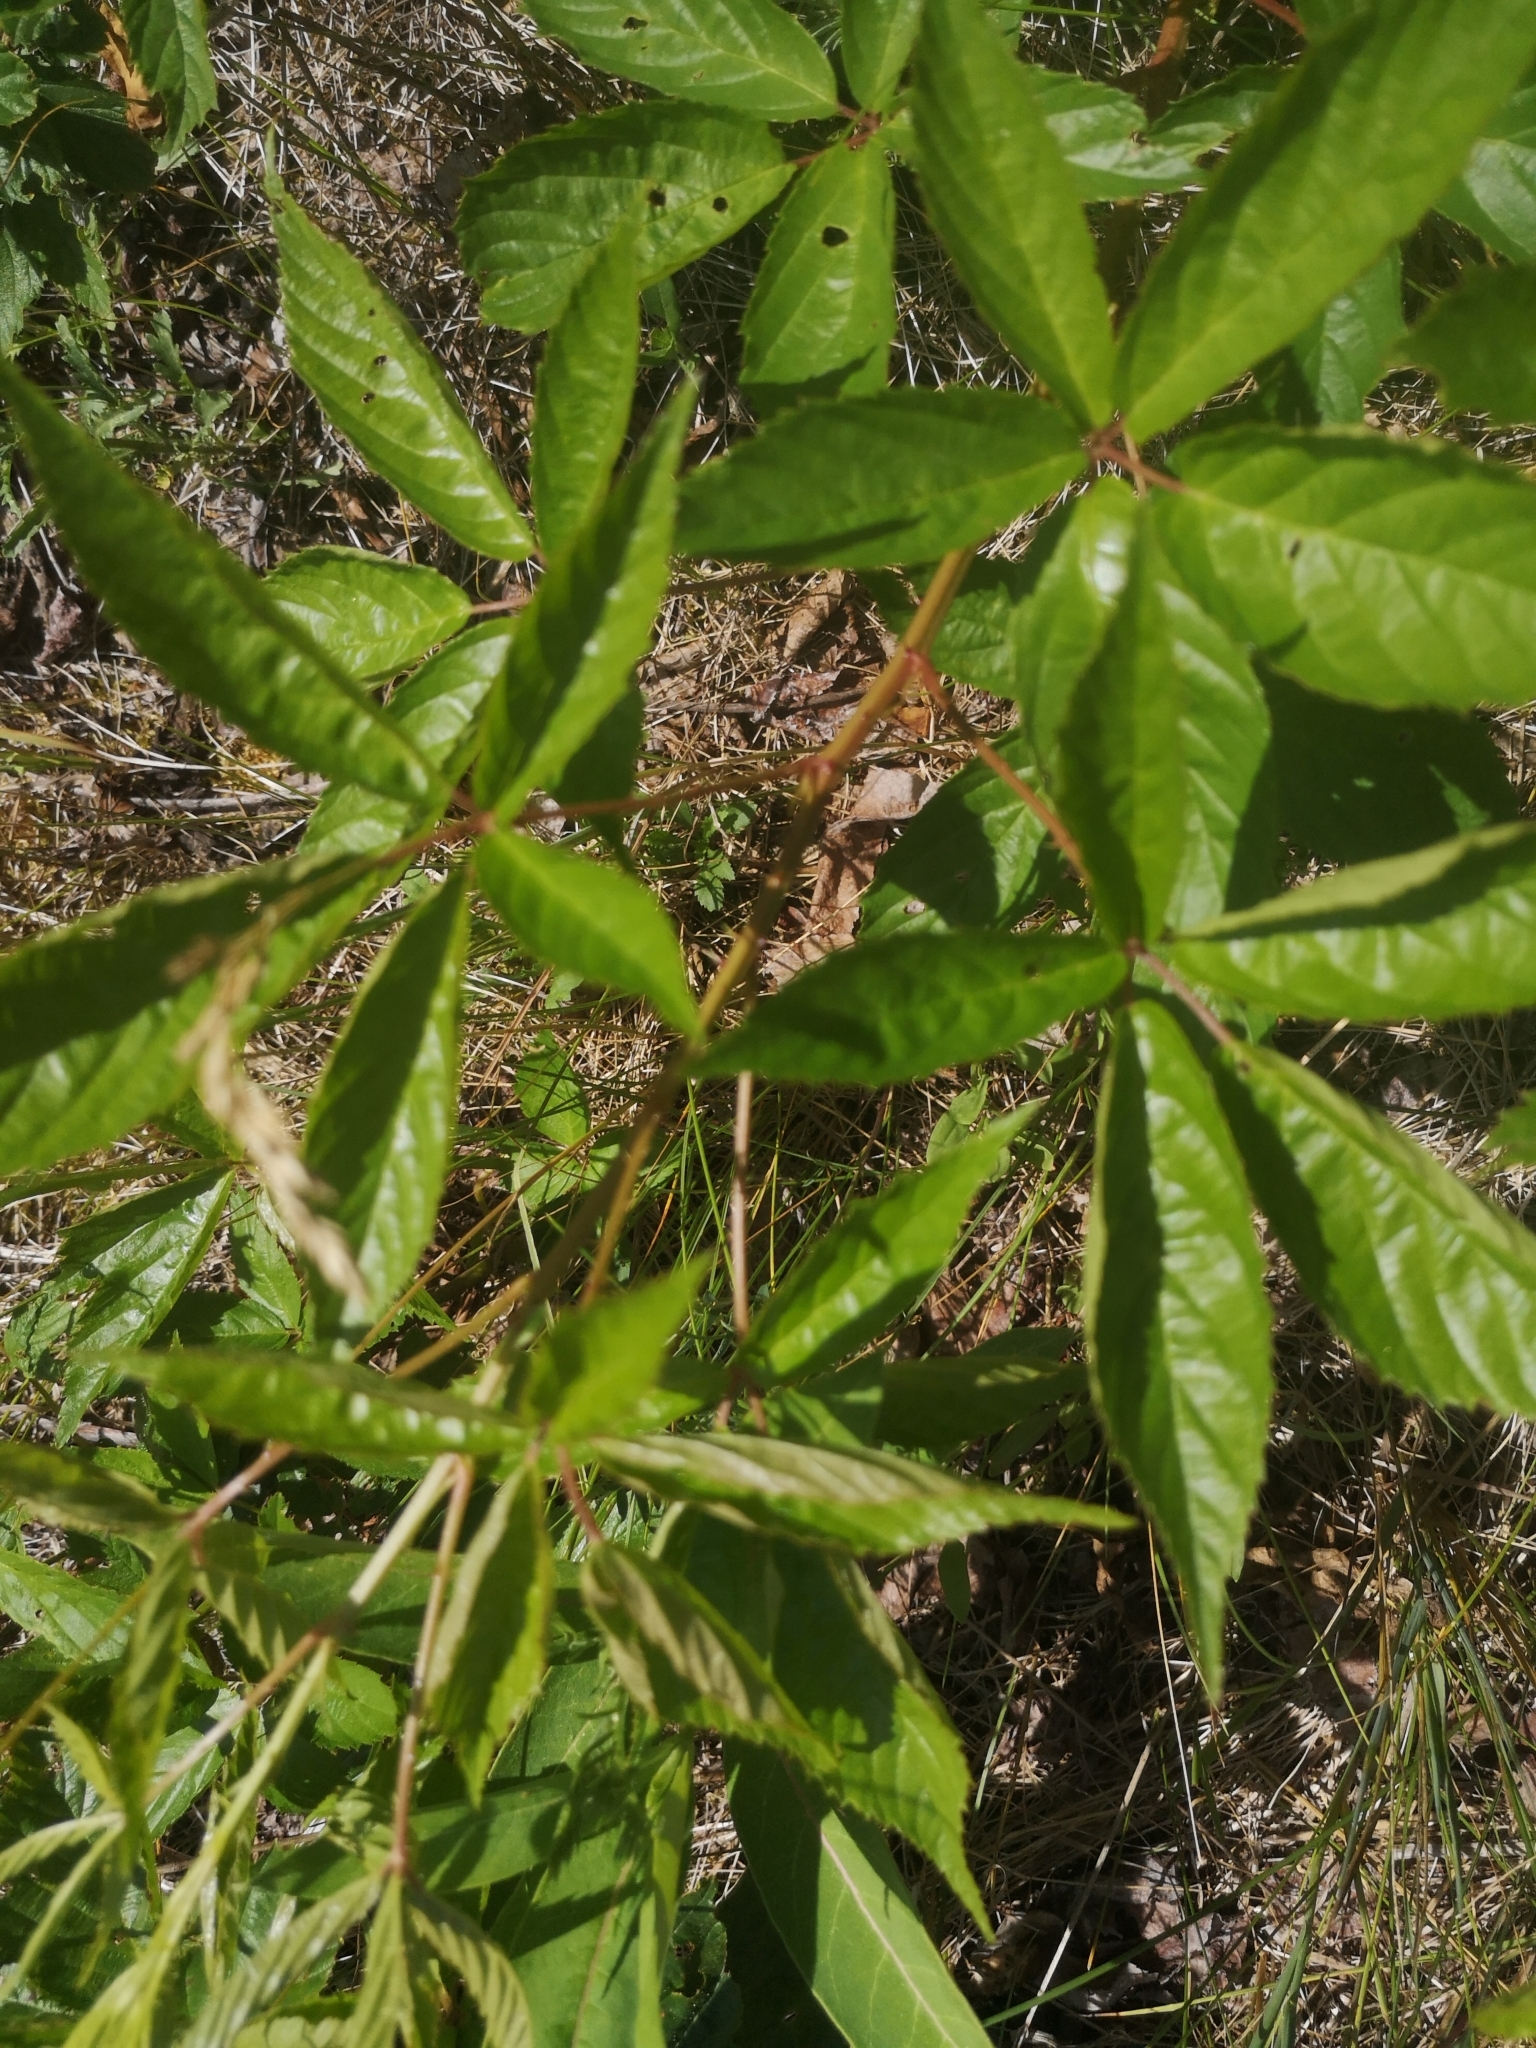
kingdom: Plantae
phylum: Tracheophyta
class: Magnoliopsida
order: Vitales
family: Vitaceae
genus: Parthenocissus
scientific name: Parthenocissus quinquefolia
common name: Virginia-creeper
